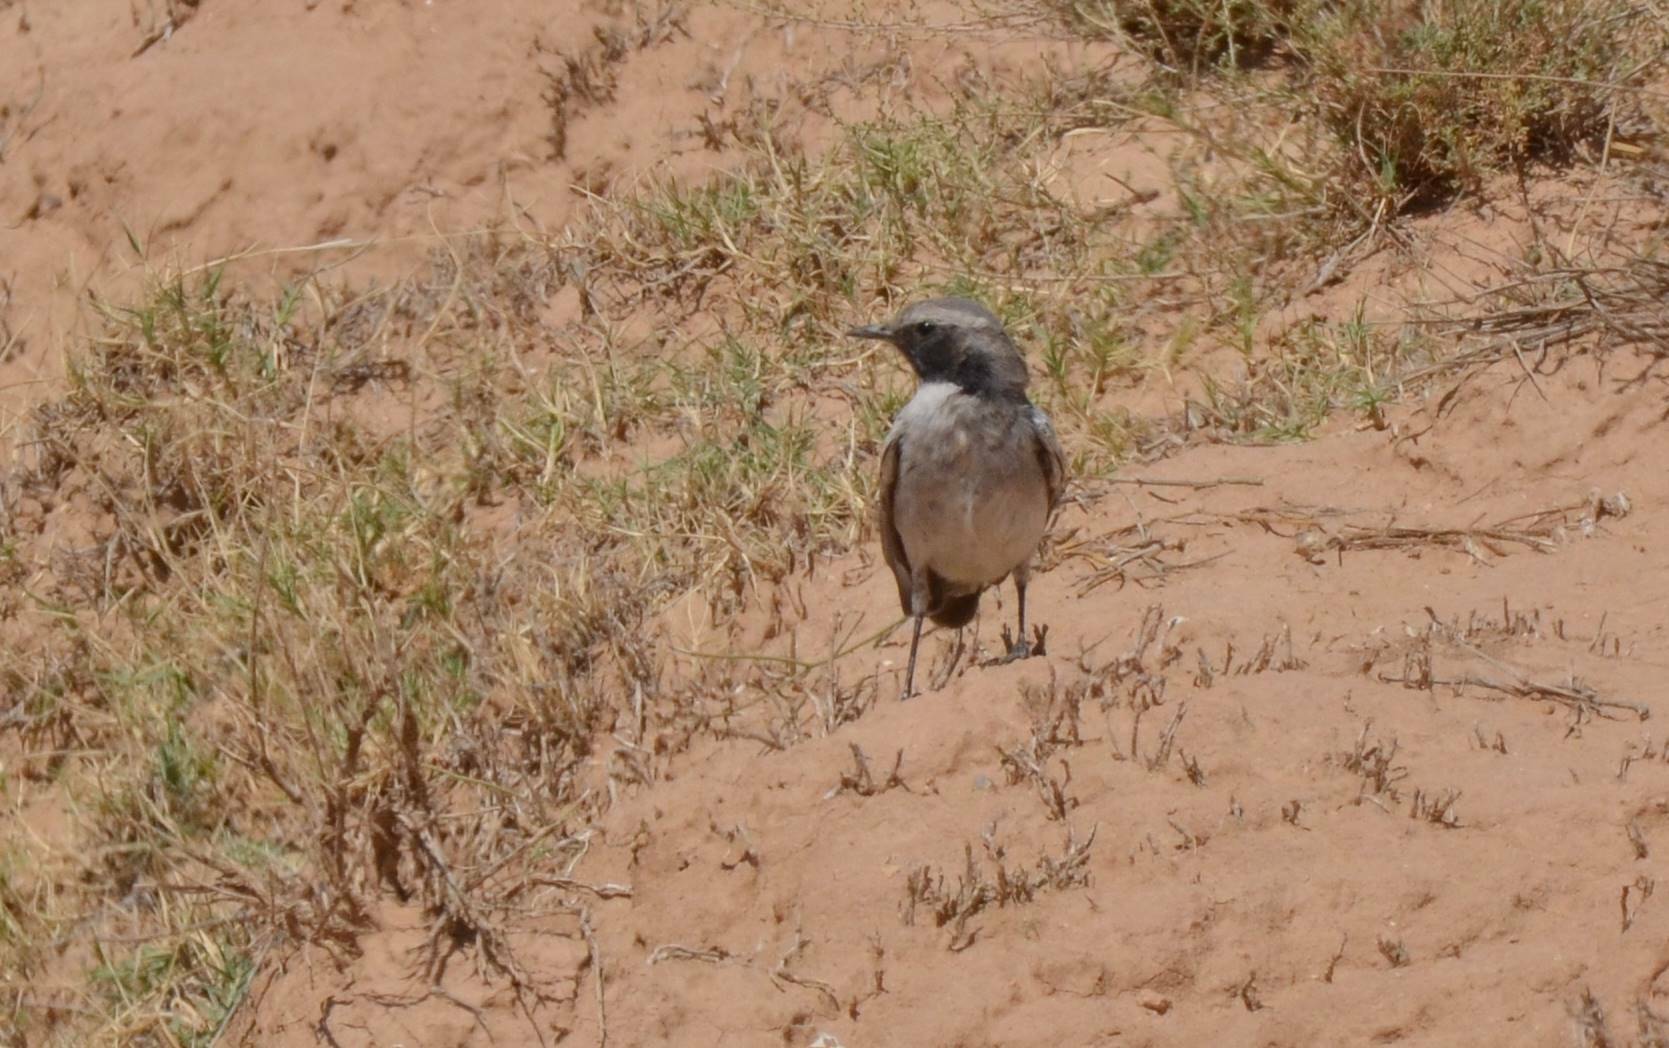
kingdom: Animalia
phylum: Chordata
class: Aves
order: Passeriformes
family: Muscicapidae
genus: Oenanthe
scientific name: Oenanthe moesta
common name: Red-rumped wheatear
